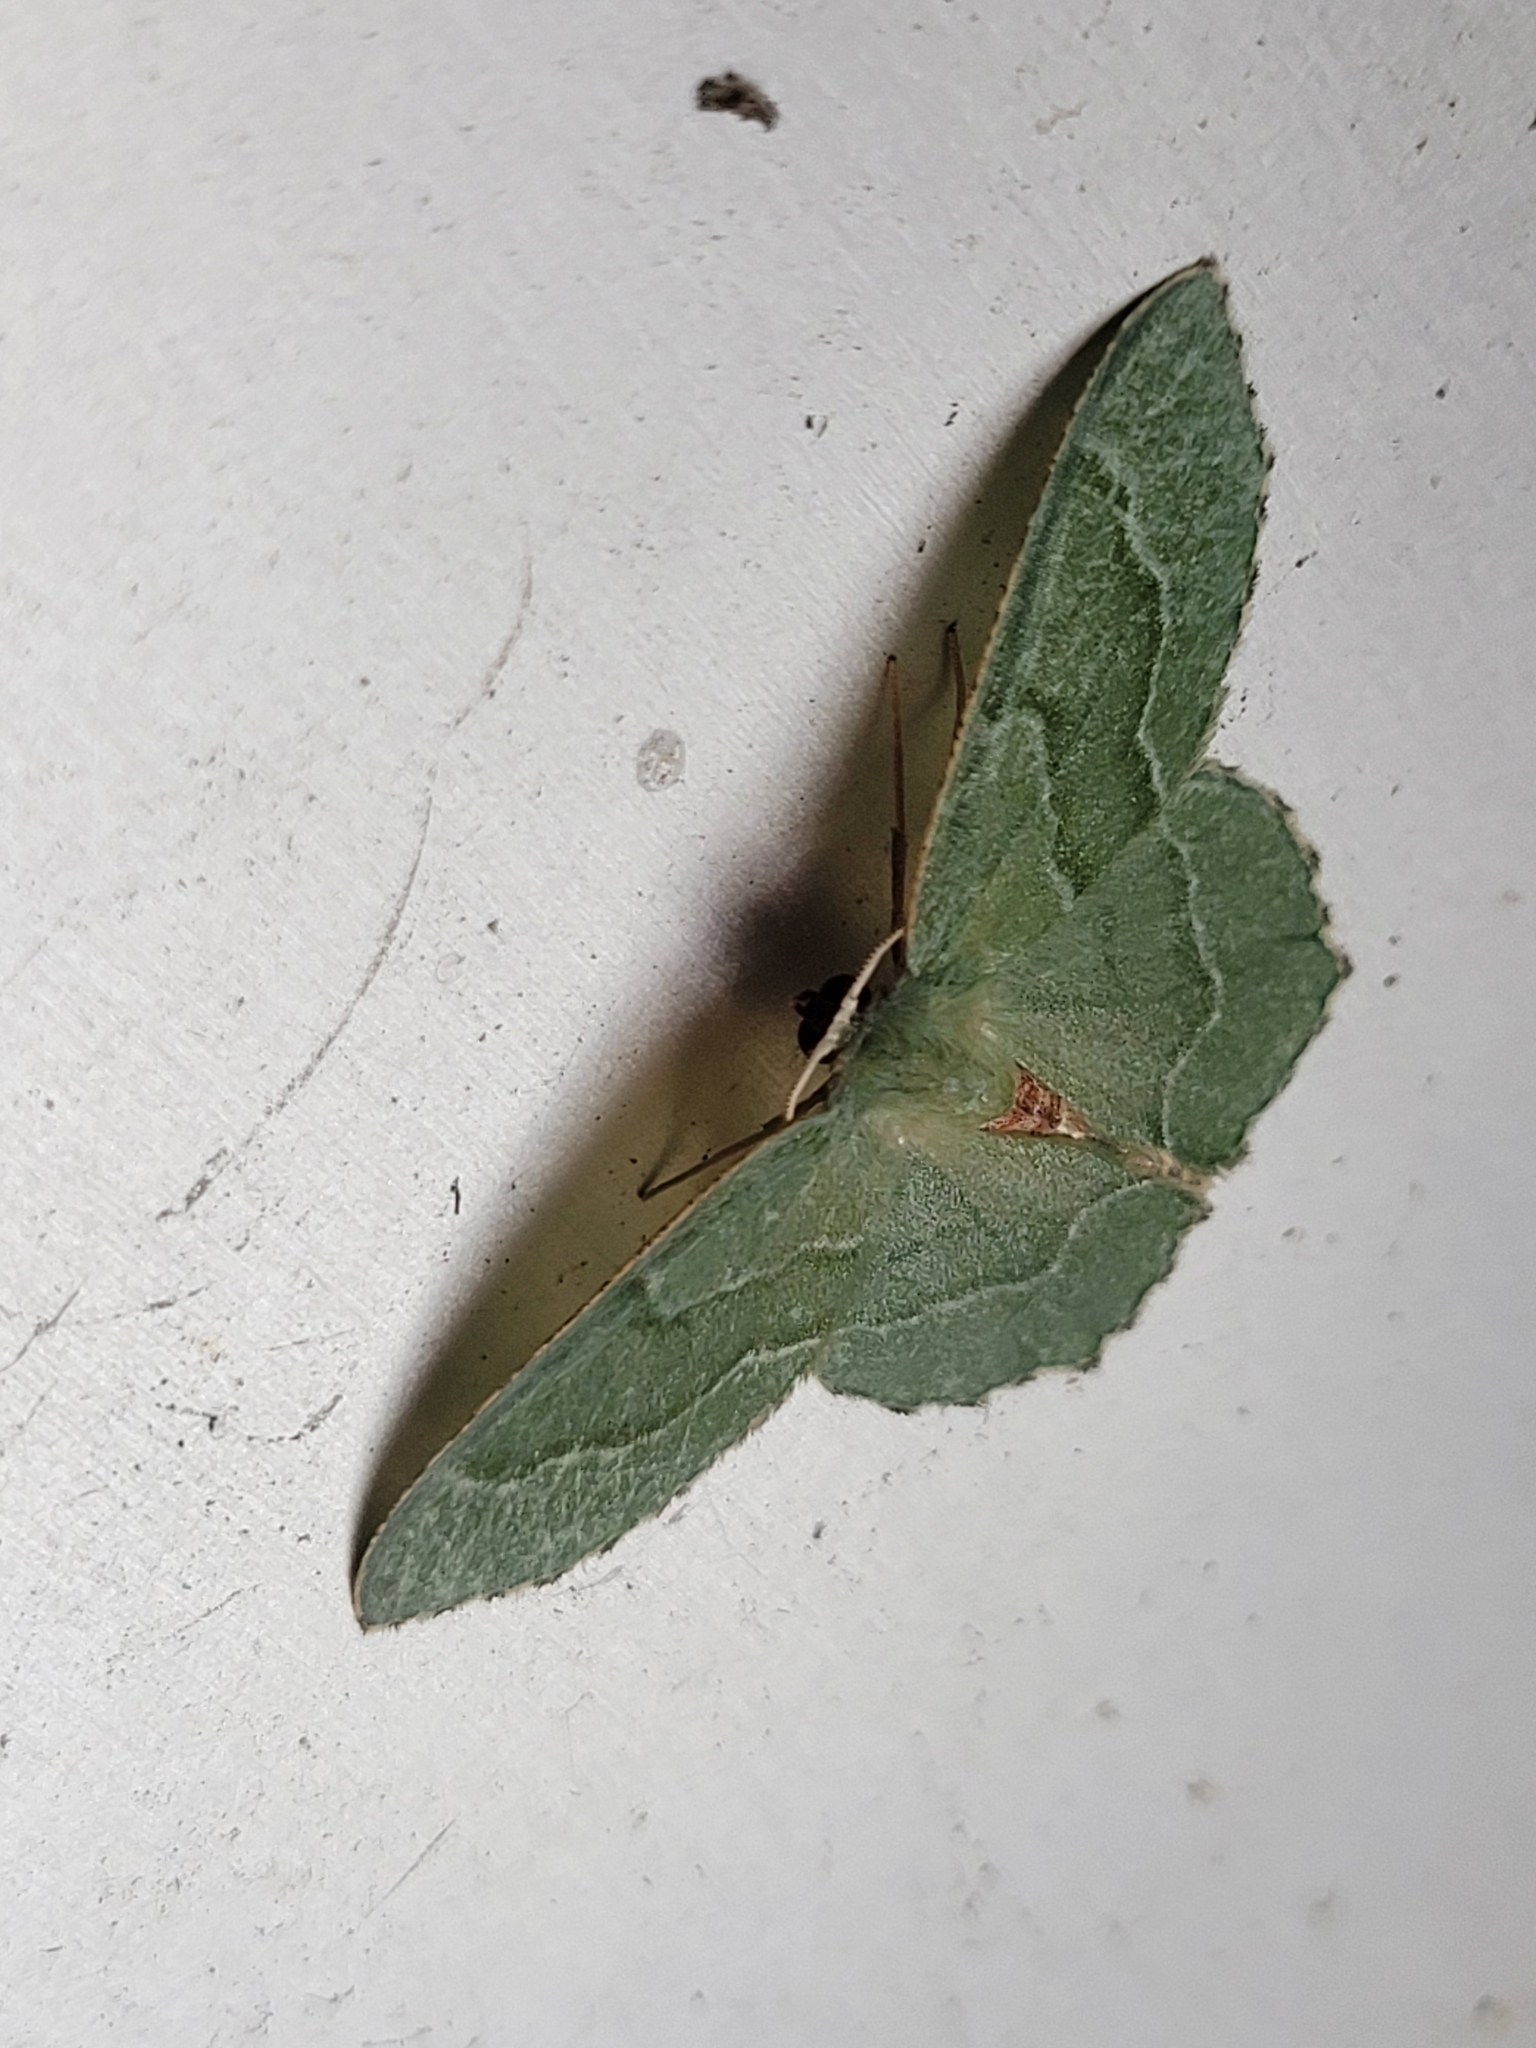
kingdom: Animalia
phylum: Arthropoda
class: Insecta
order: Lepidoptera
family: Geometridae
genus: Hemithea
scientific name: Hemithea aestivaria
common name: Common emerald
